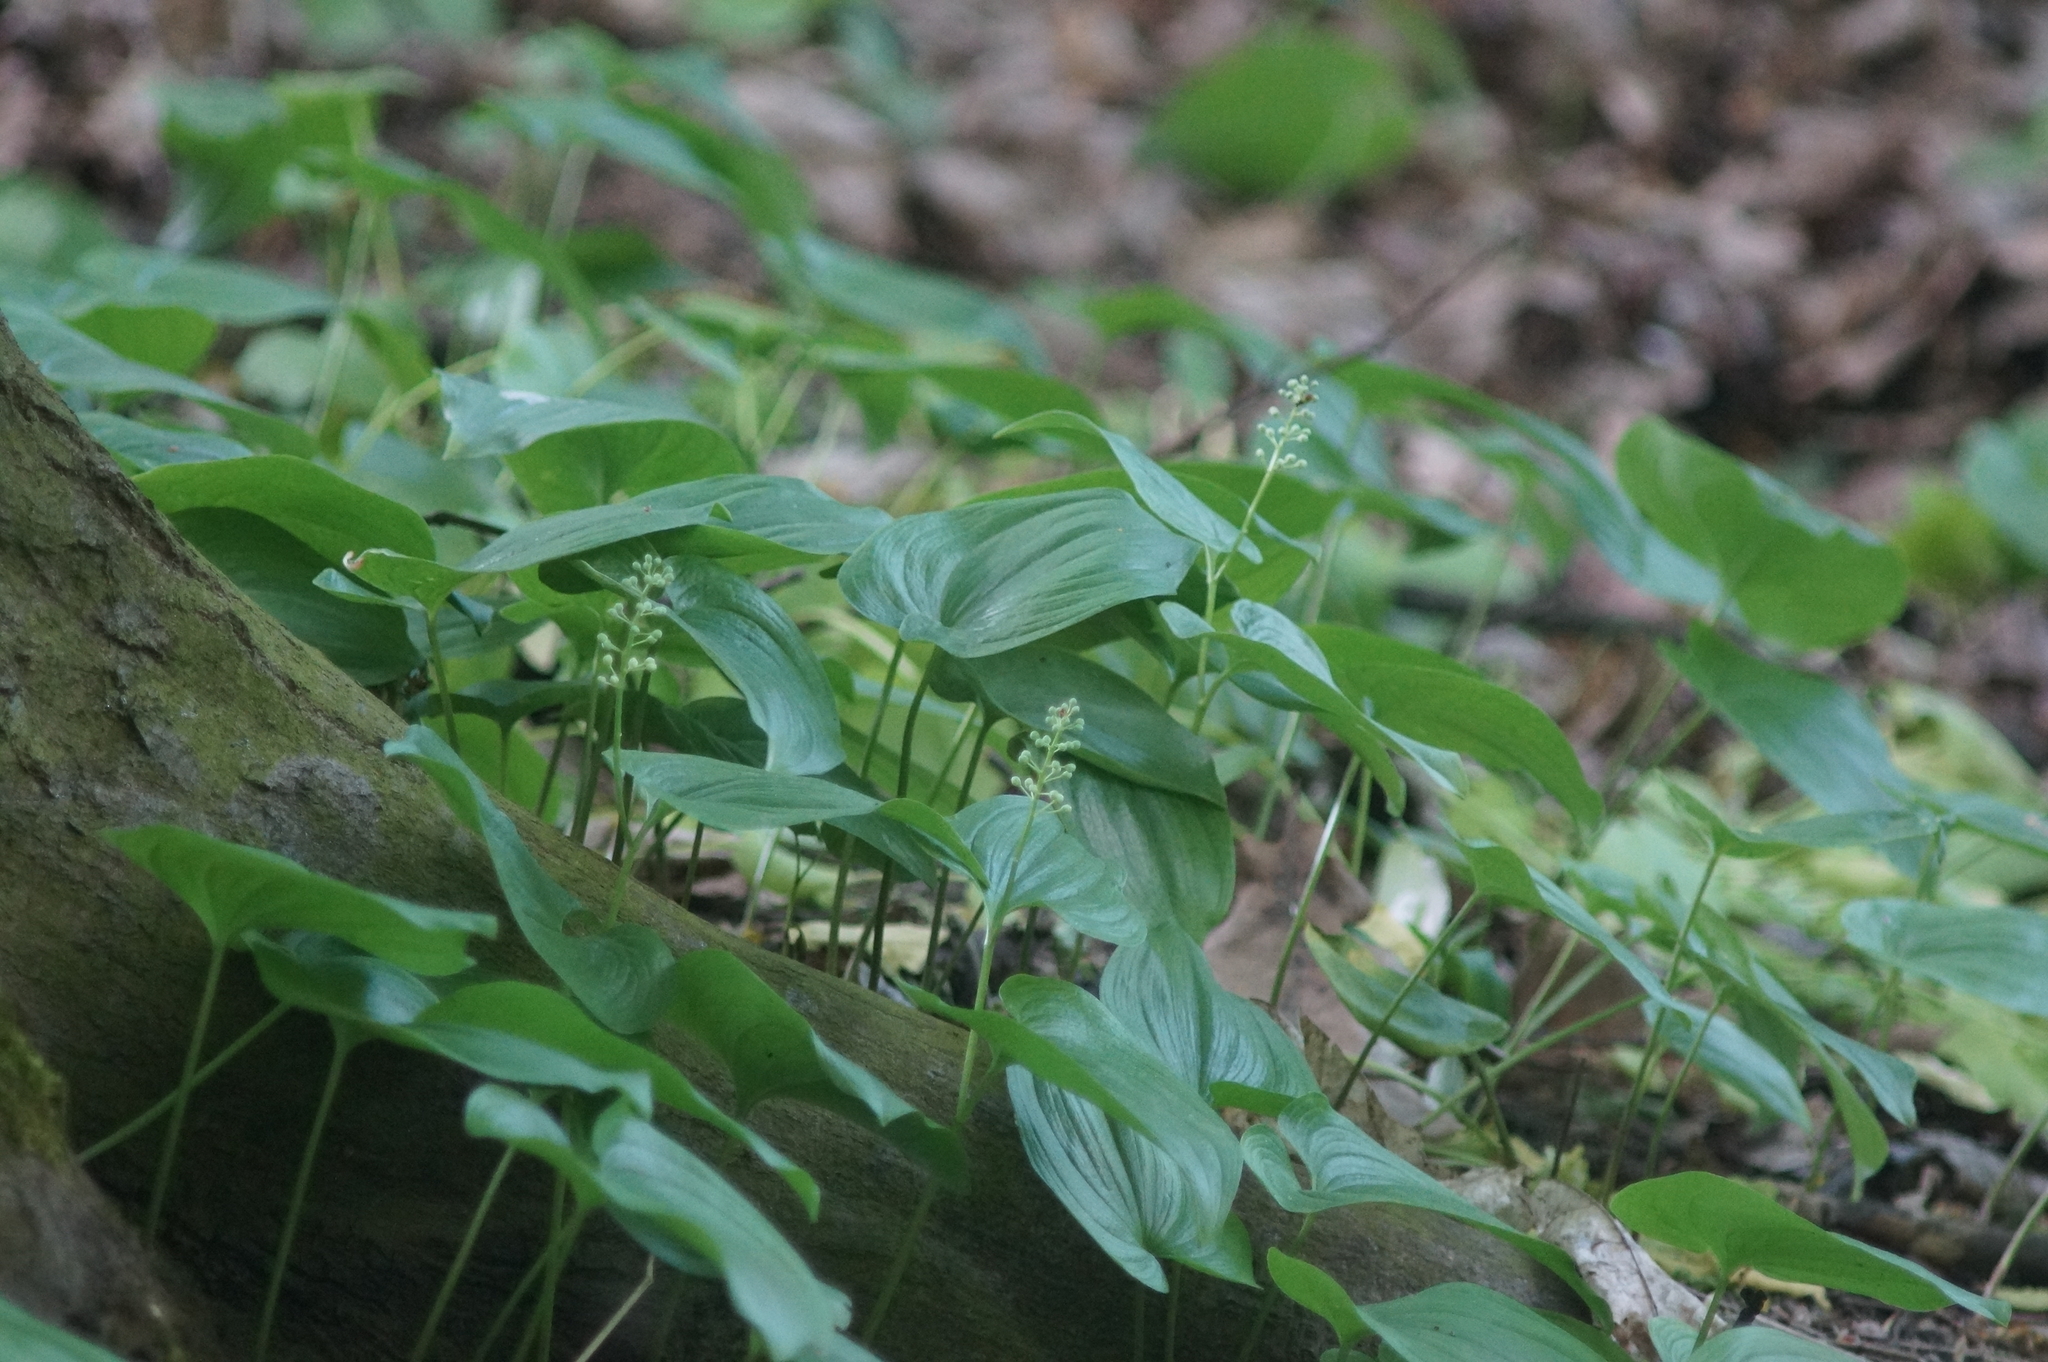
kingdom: Plantae
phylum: Tracheophyta
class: Liliopsida
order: Asparagales
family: Asparagaceae
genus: Maianthemum
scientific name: Maianthemum bifolium
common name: May lily
